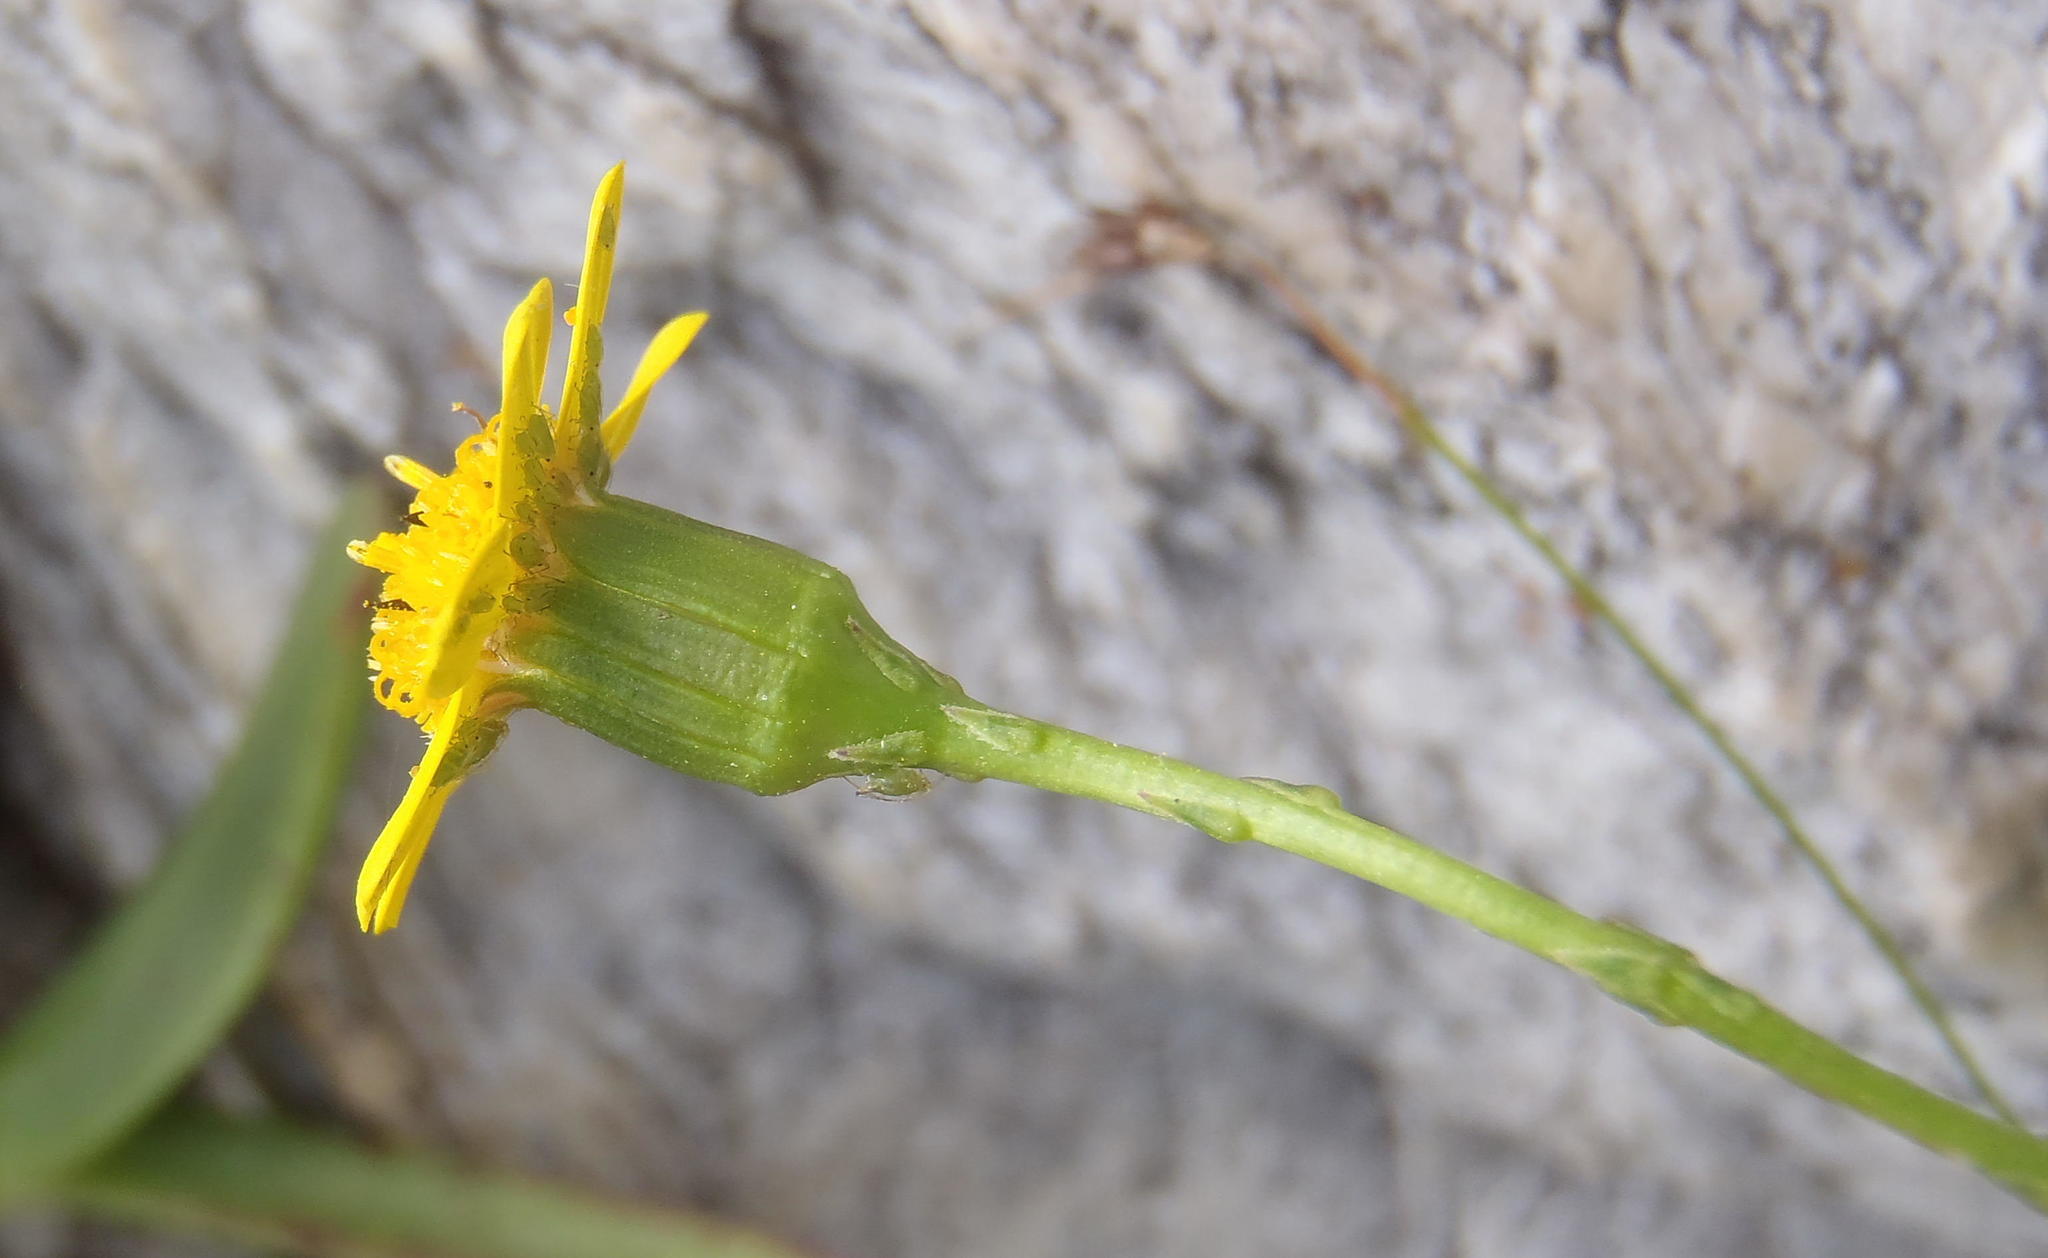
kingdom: Plantae
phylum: Tracheophyta
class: Magnoliopsida
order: Asterales
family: Asteraceae
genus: Cineraria
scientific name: Cineraria lobata
